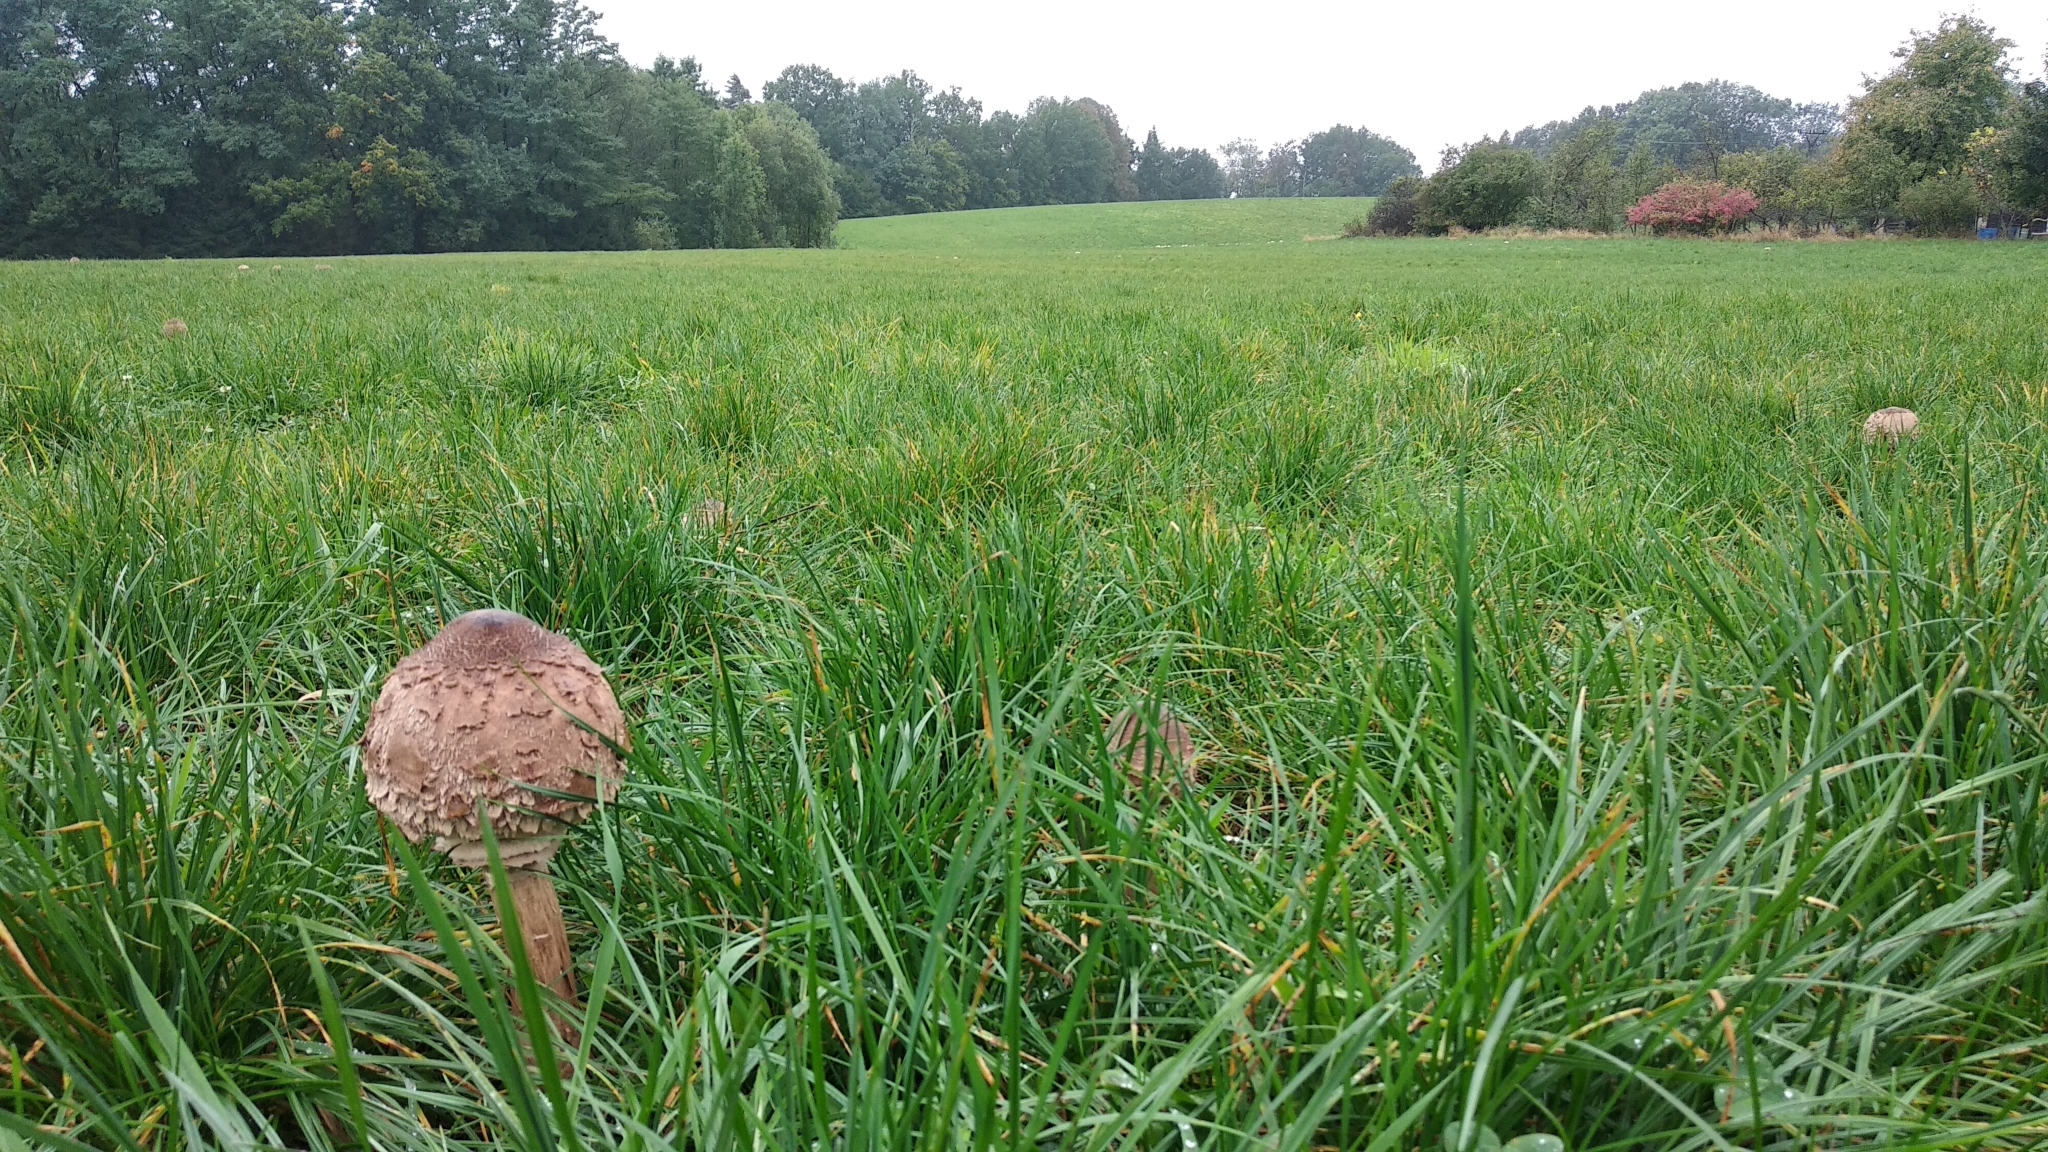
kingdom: Fungi
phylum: Basidiomycota
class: Agaricomycetes
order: Agaricales
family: Agaricaceae
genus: Macrolepiota
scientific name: Macrolepiota procera
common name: Parasol
